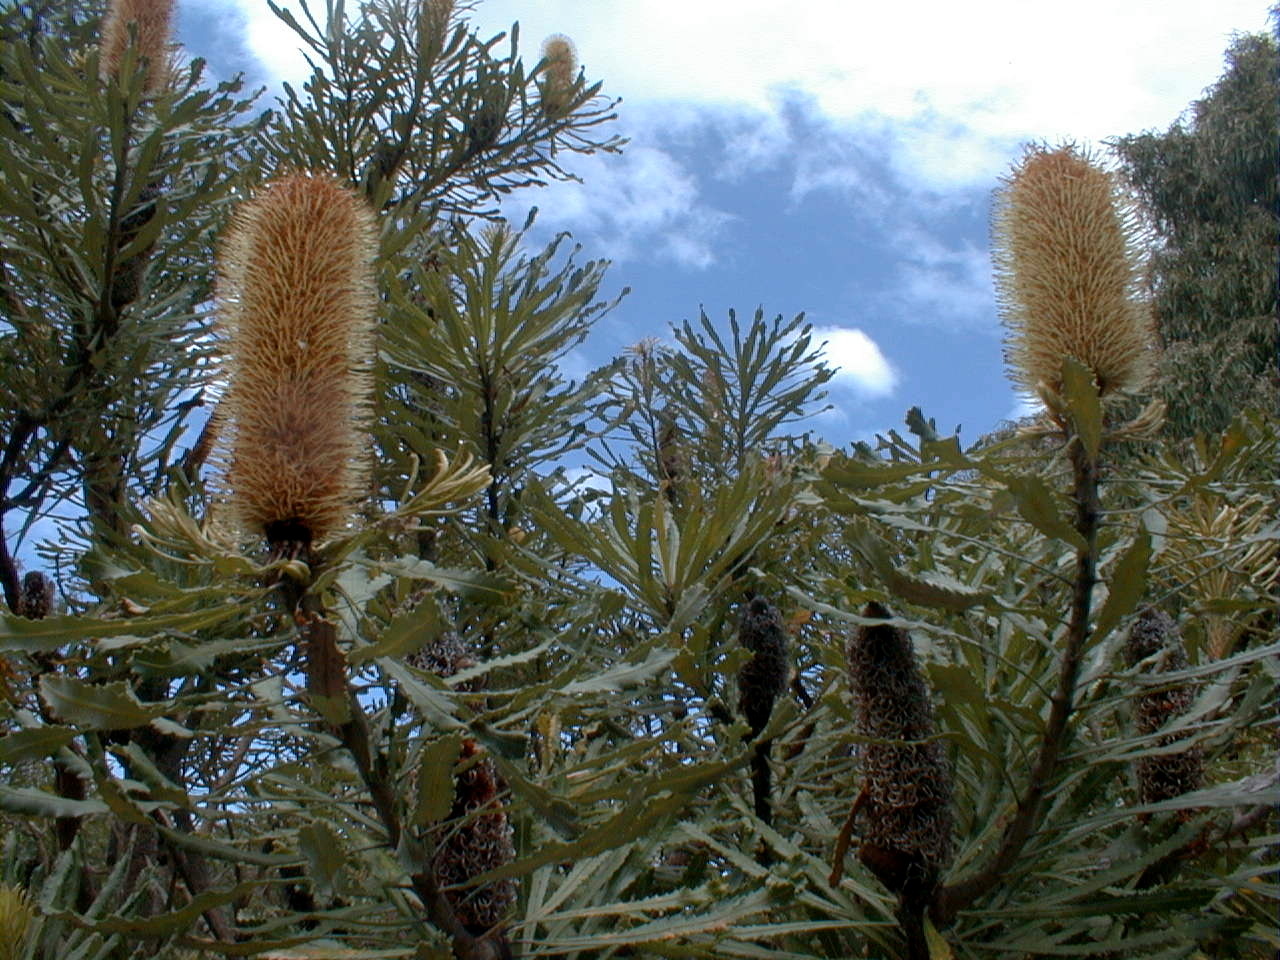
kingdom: Plantae
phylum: Tracheophyta
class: Magnoliopsida
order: Proteales
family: Proteaceae
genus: Banksia
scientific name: Banksia attenuata
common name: Coast banksia
